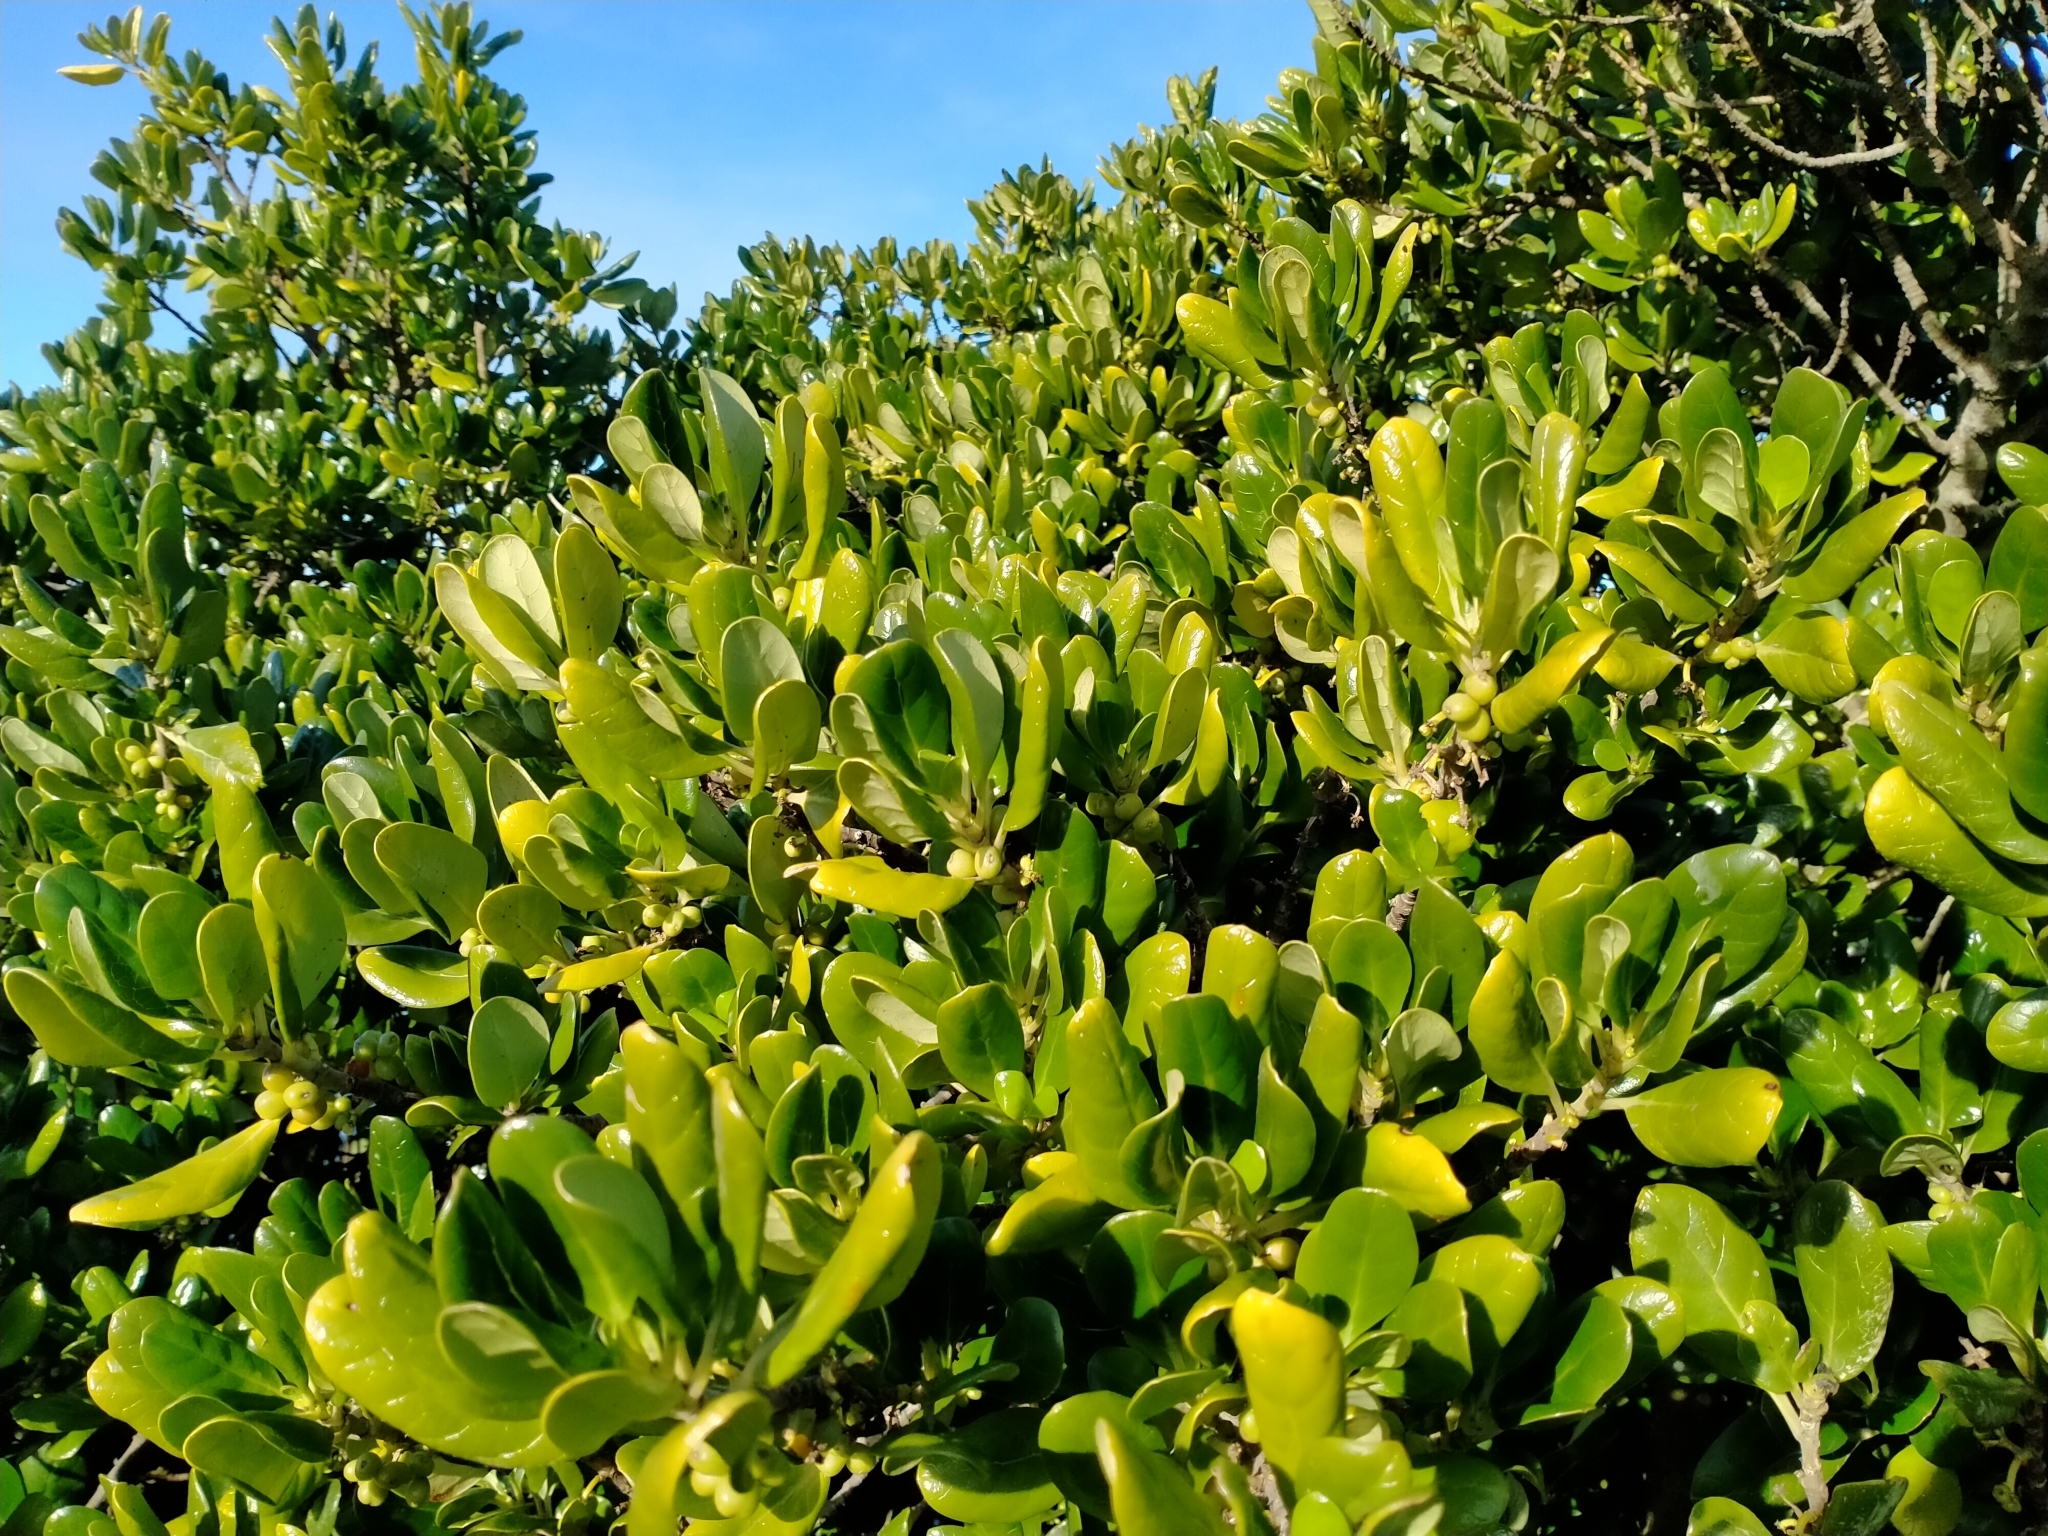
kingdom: Plantae
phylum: Tracheophyta
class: Magnoliopsida
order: Gentianales
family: Rubiaceae
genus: Coprosma
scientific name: Coprosma repens
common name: Tree bedstraw
